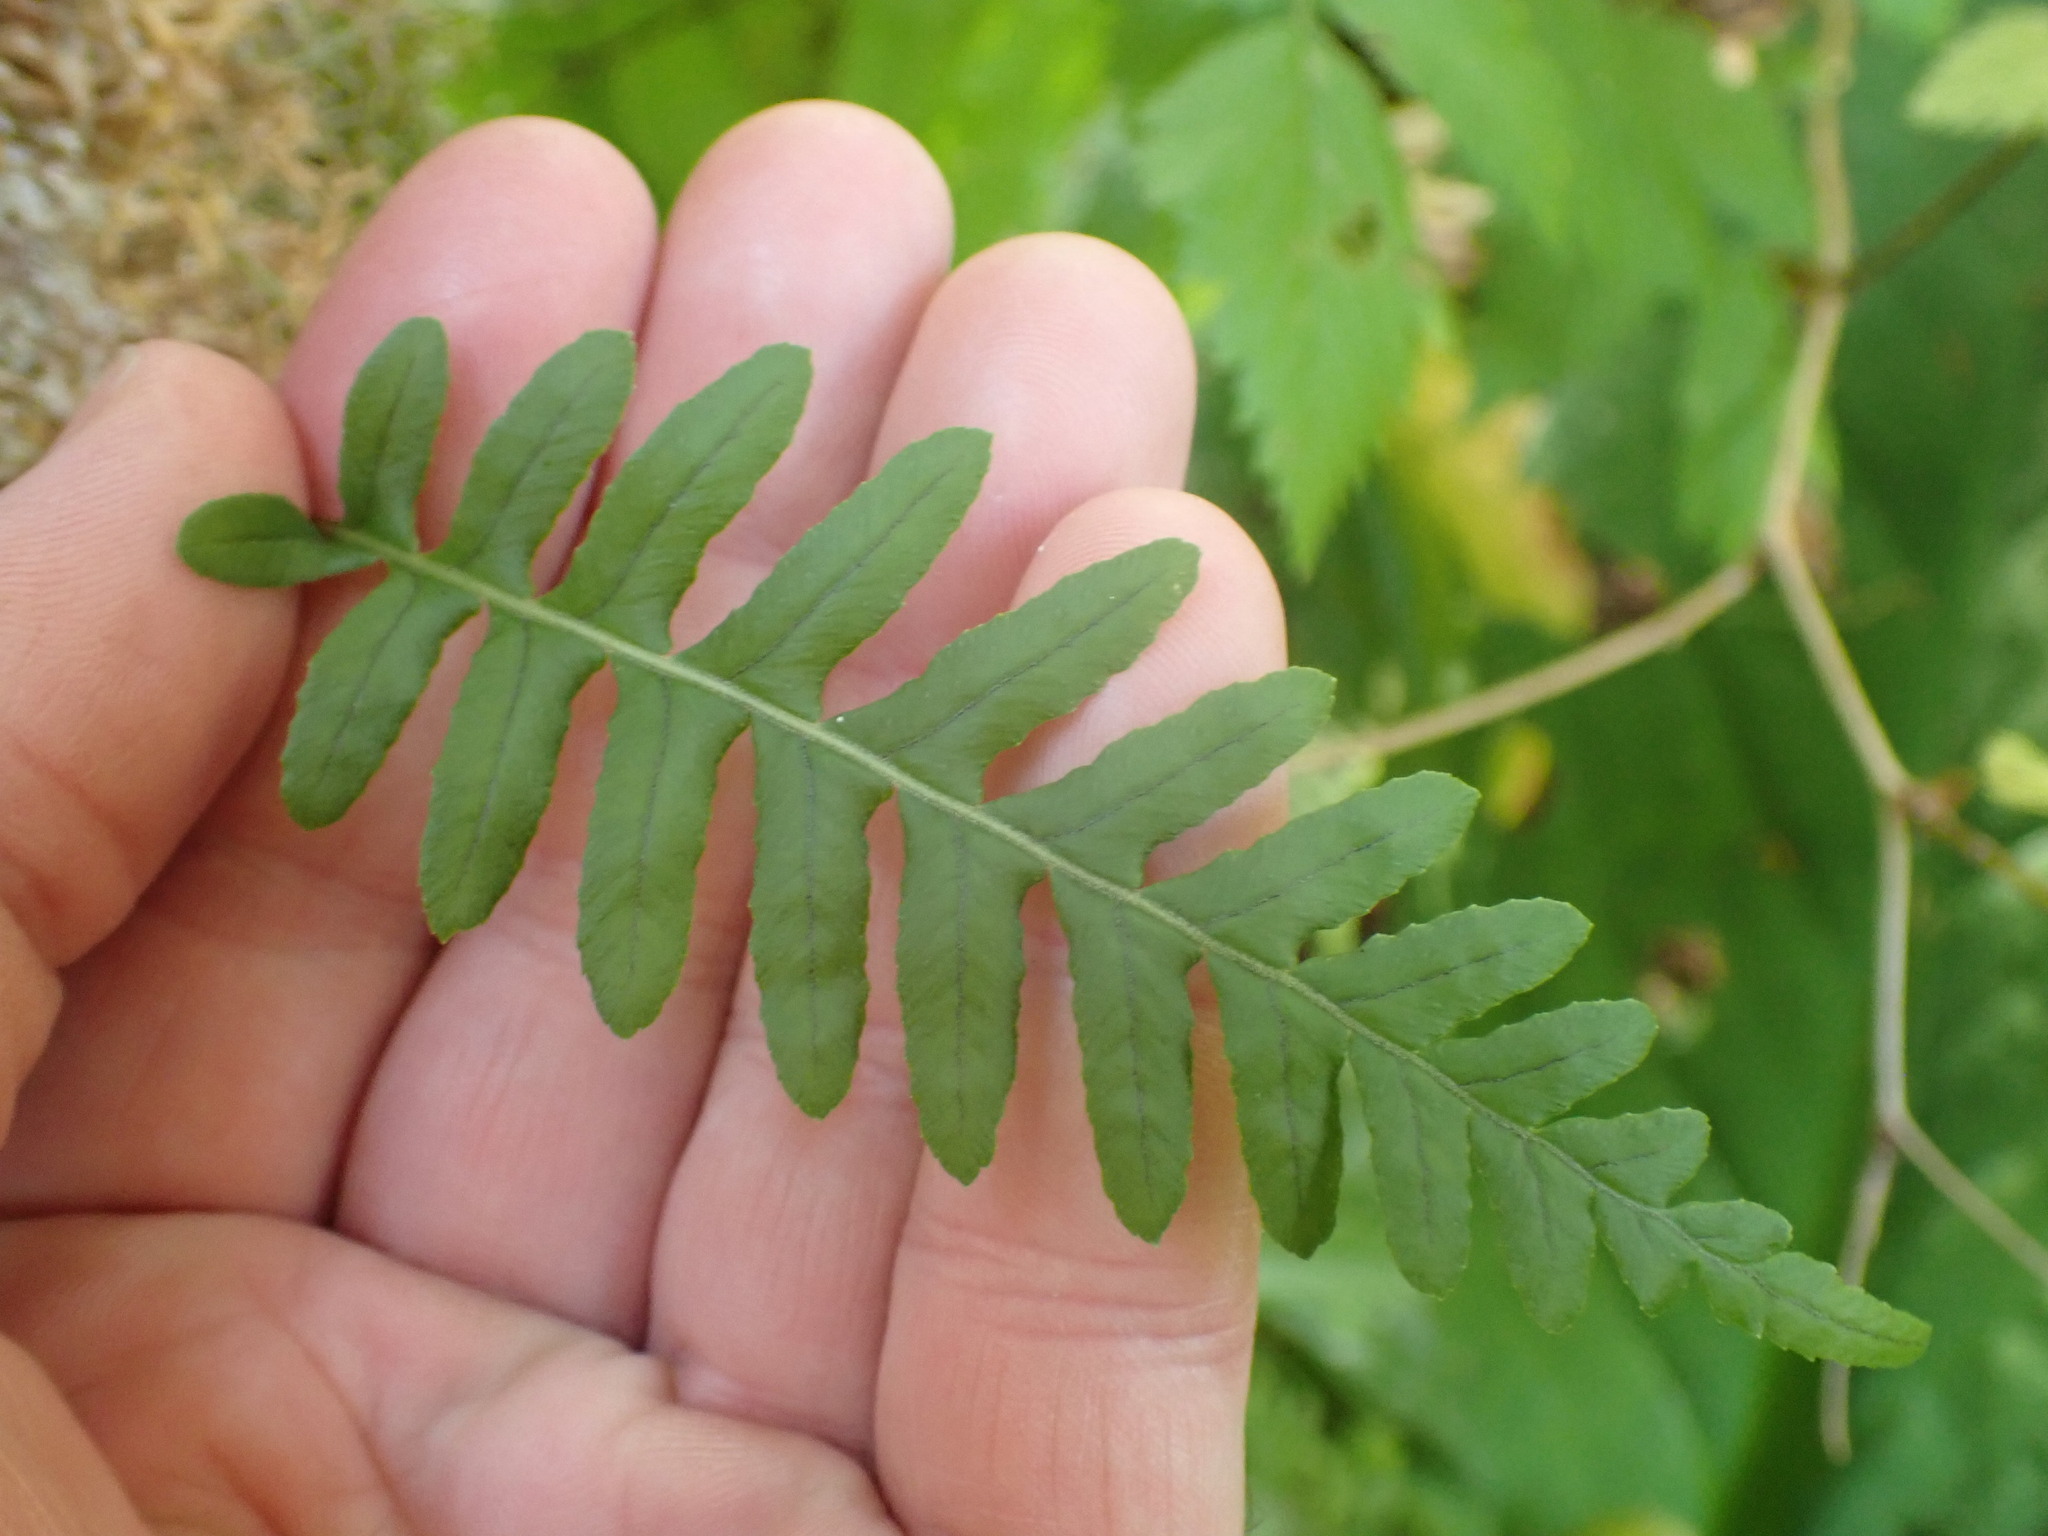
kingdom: Plantae
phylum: Tracheophyta
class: Polypodiopsida
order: Polypodiales
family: Polypodiaceae
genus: Polypodium
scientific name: Polypodium glycyrrhiza
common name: Licorice fern
